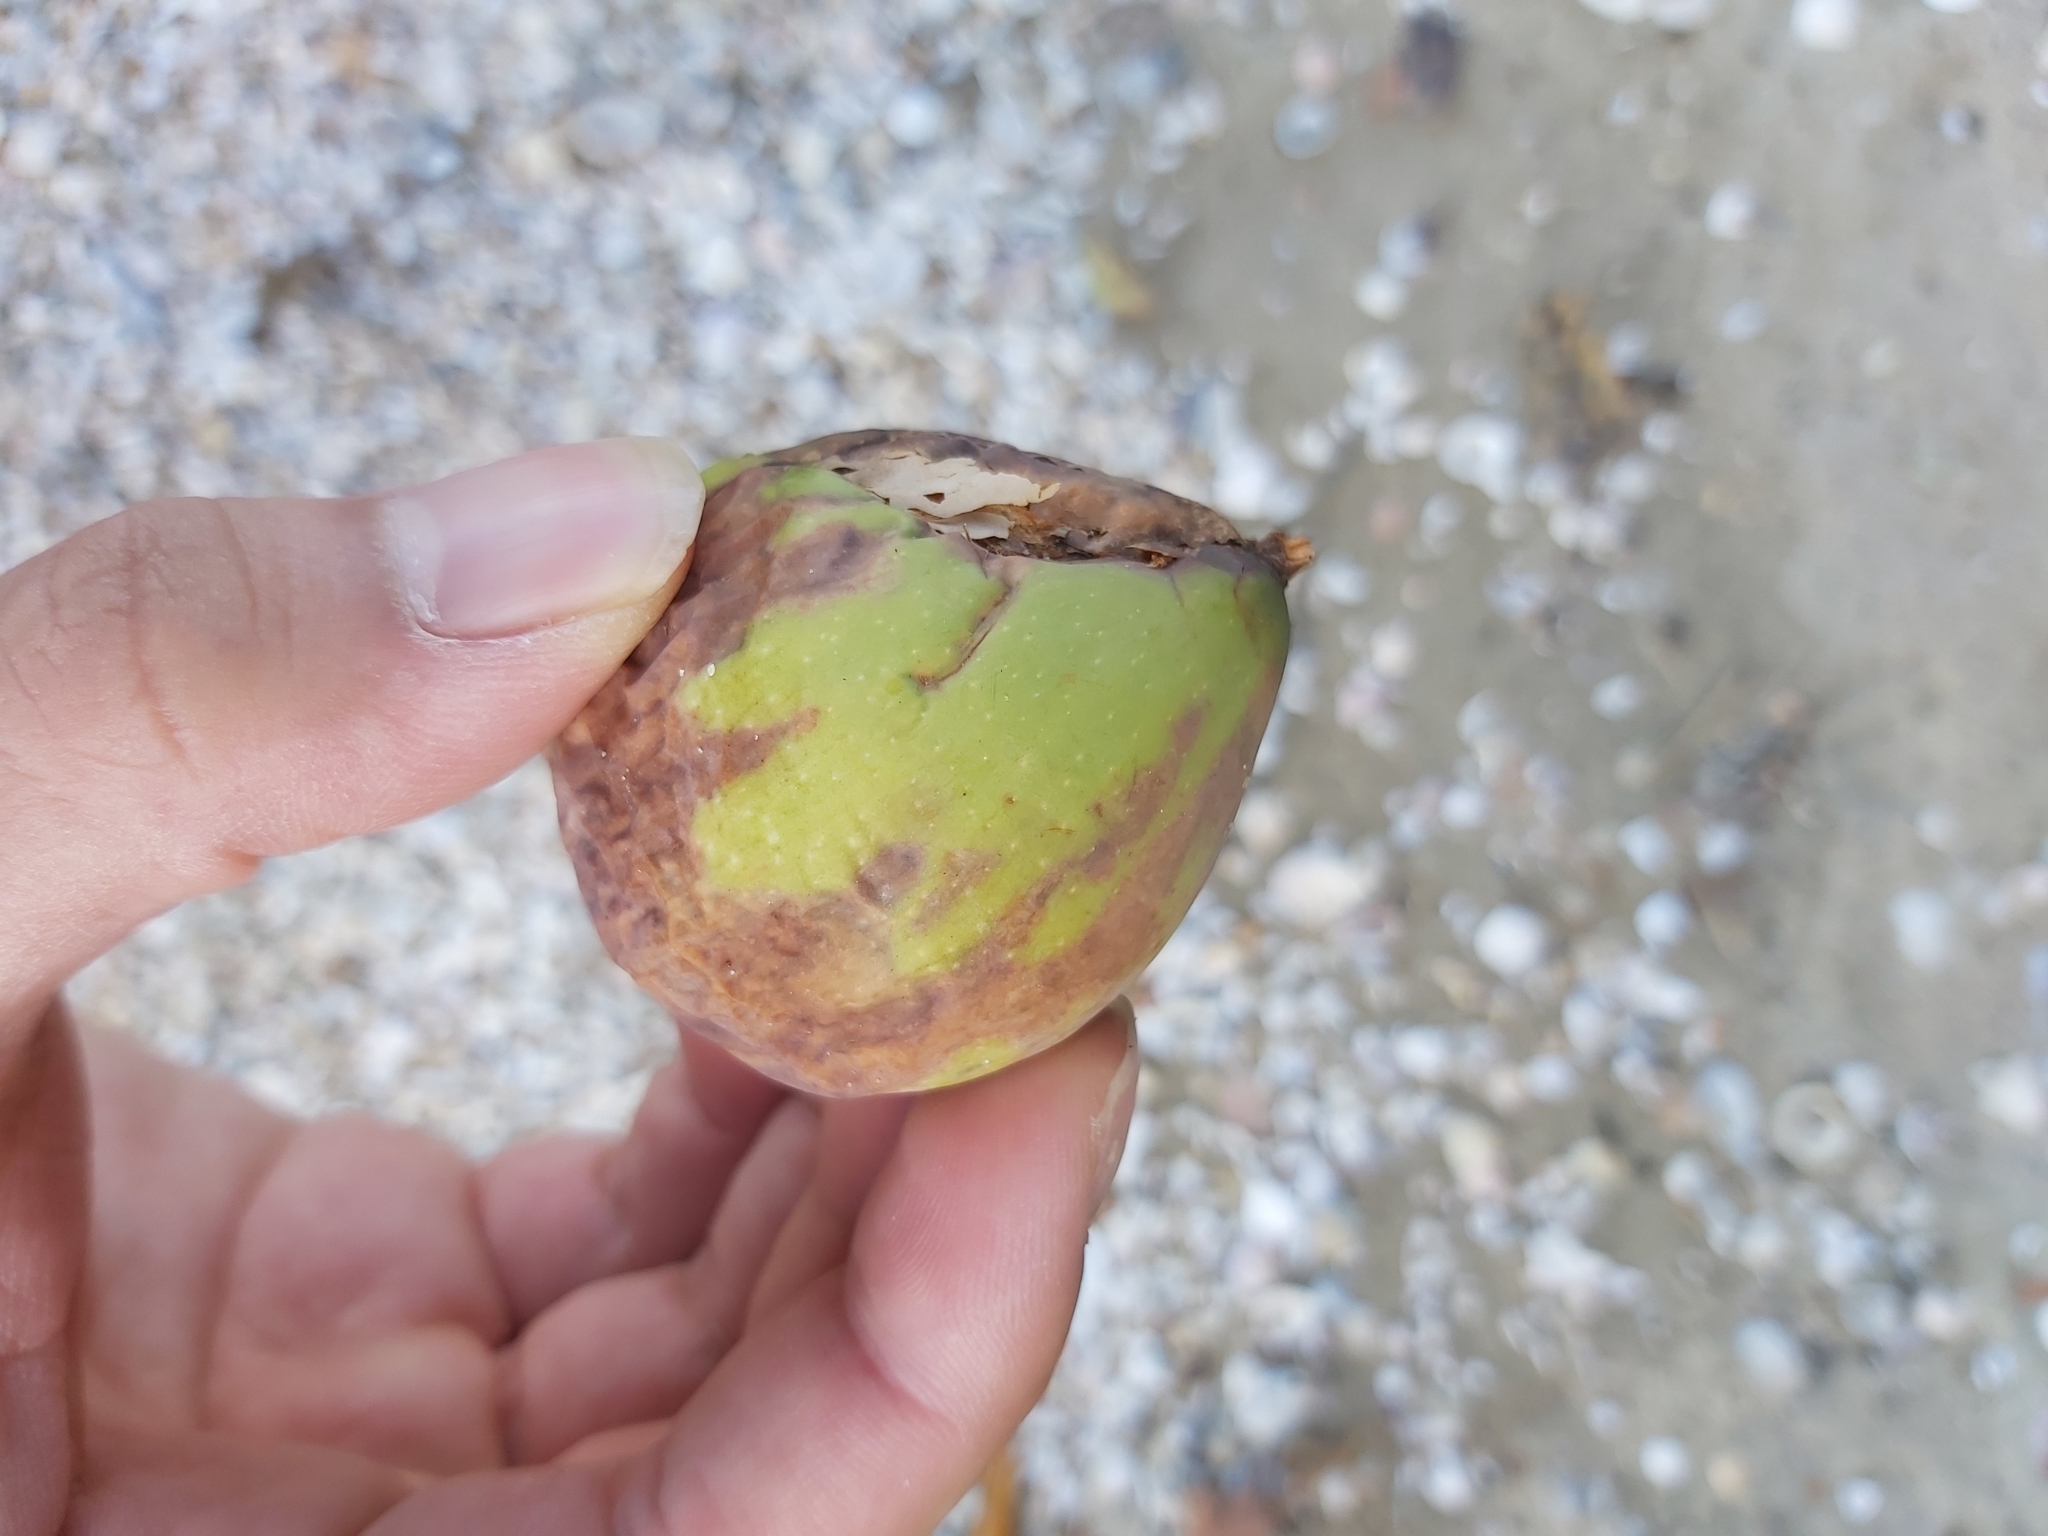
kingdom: Plantae
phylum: Tracheophyta
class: Magnoliopsida
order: Malpighiales
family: Calophyllaceae
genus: Calophyllum
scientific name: Calophyllum inophyllum
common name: Alexandrian laurel
